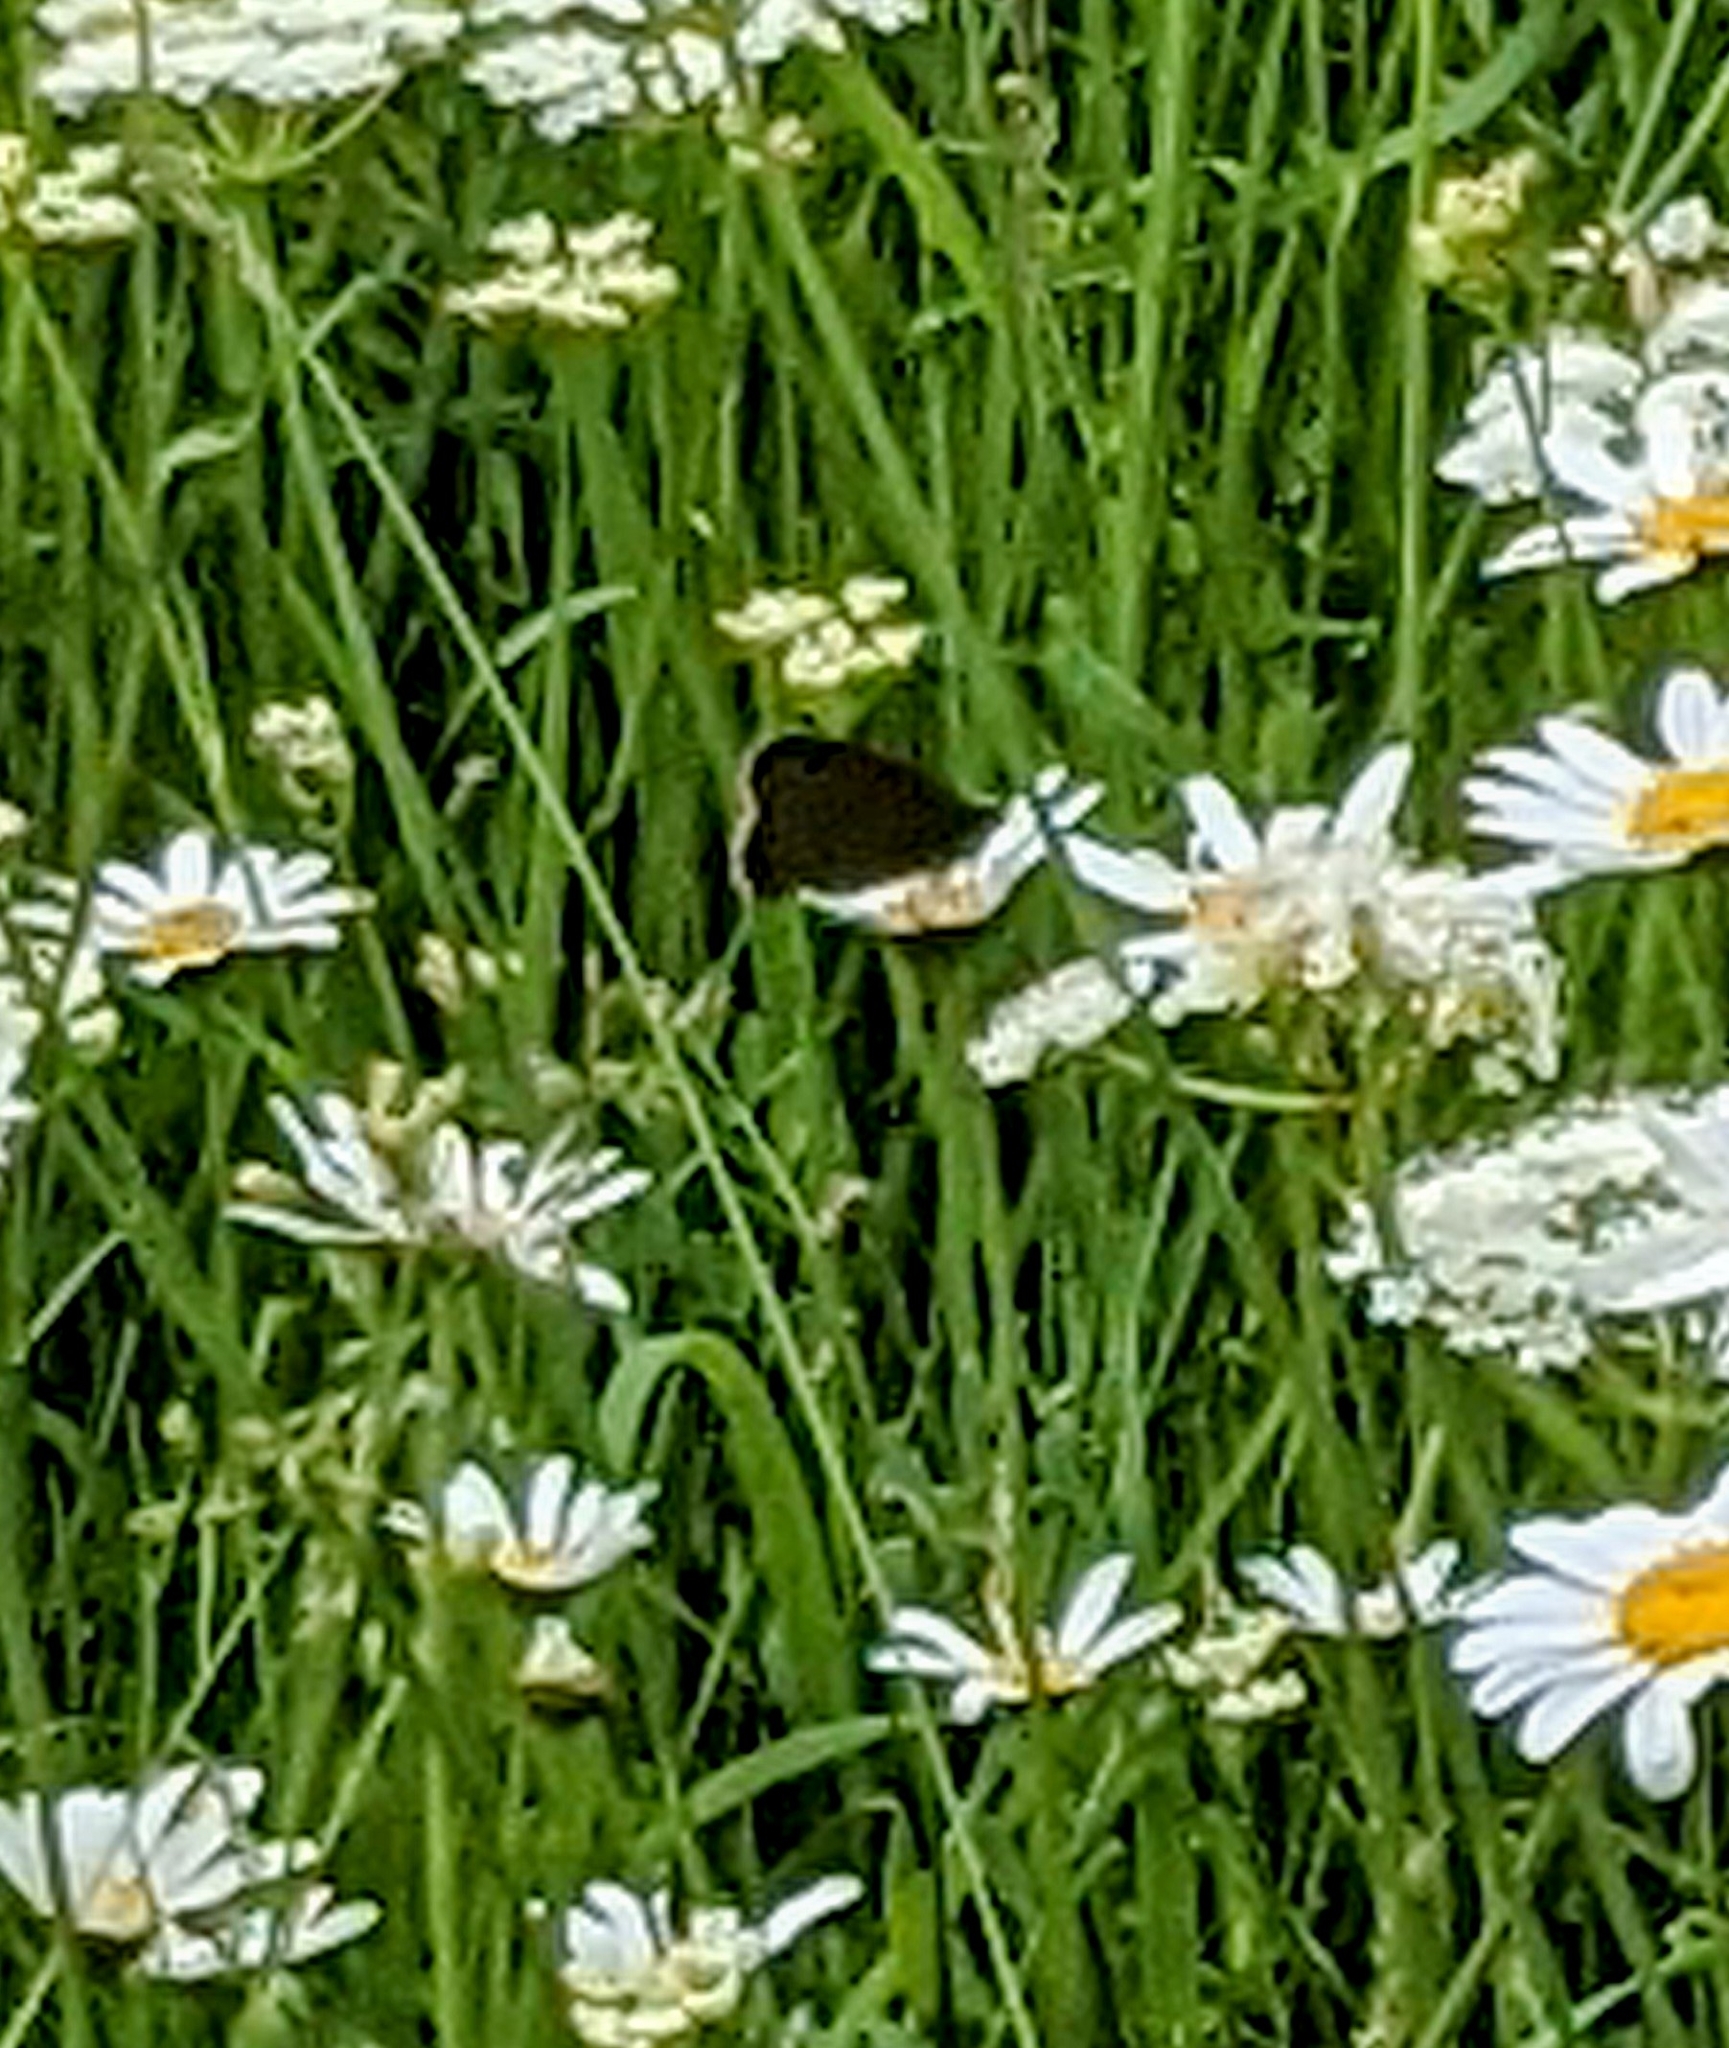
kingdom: Animalia
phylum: Arthropoda
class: Insecta
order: Lepidoptera
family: Satyridae
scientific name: Satyridae
